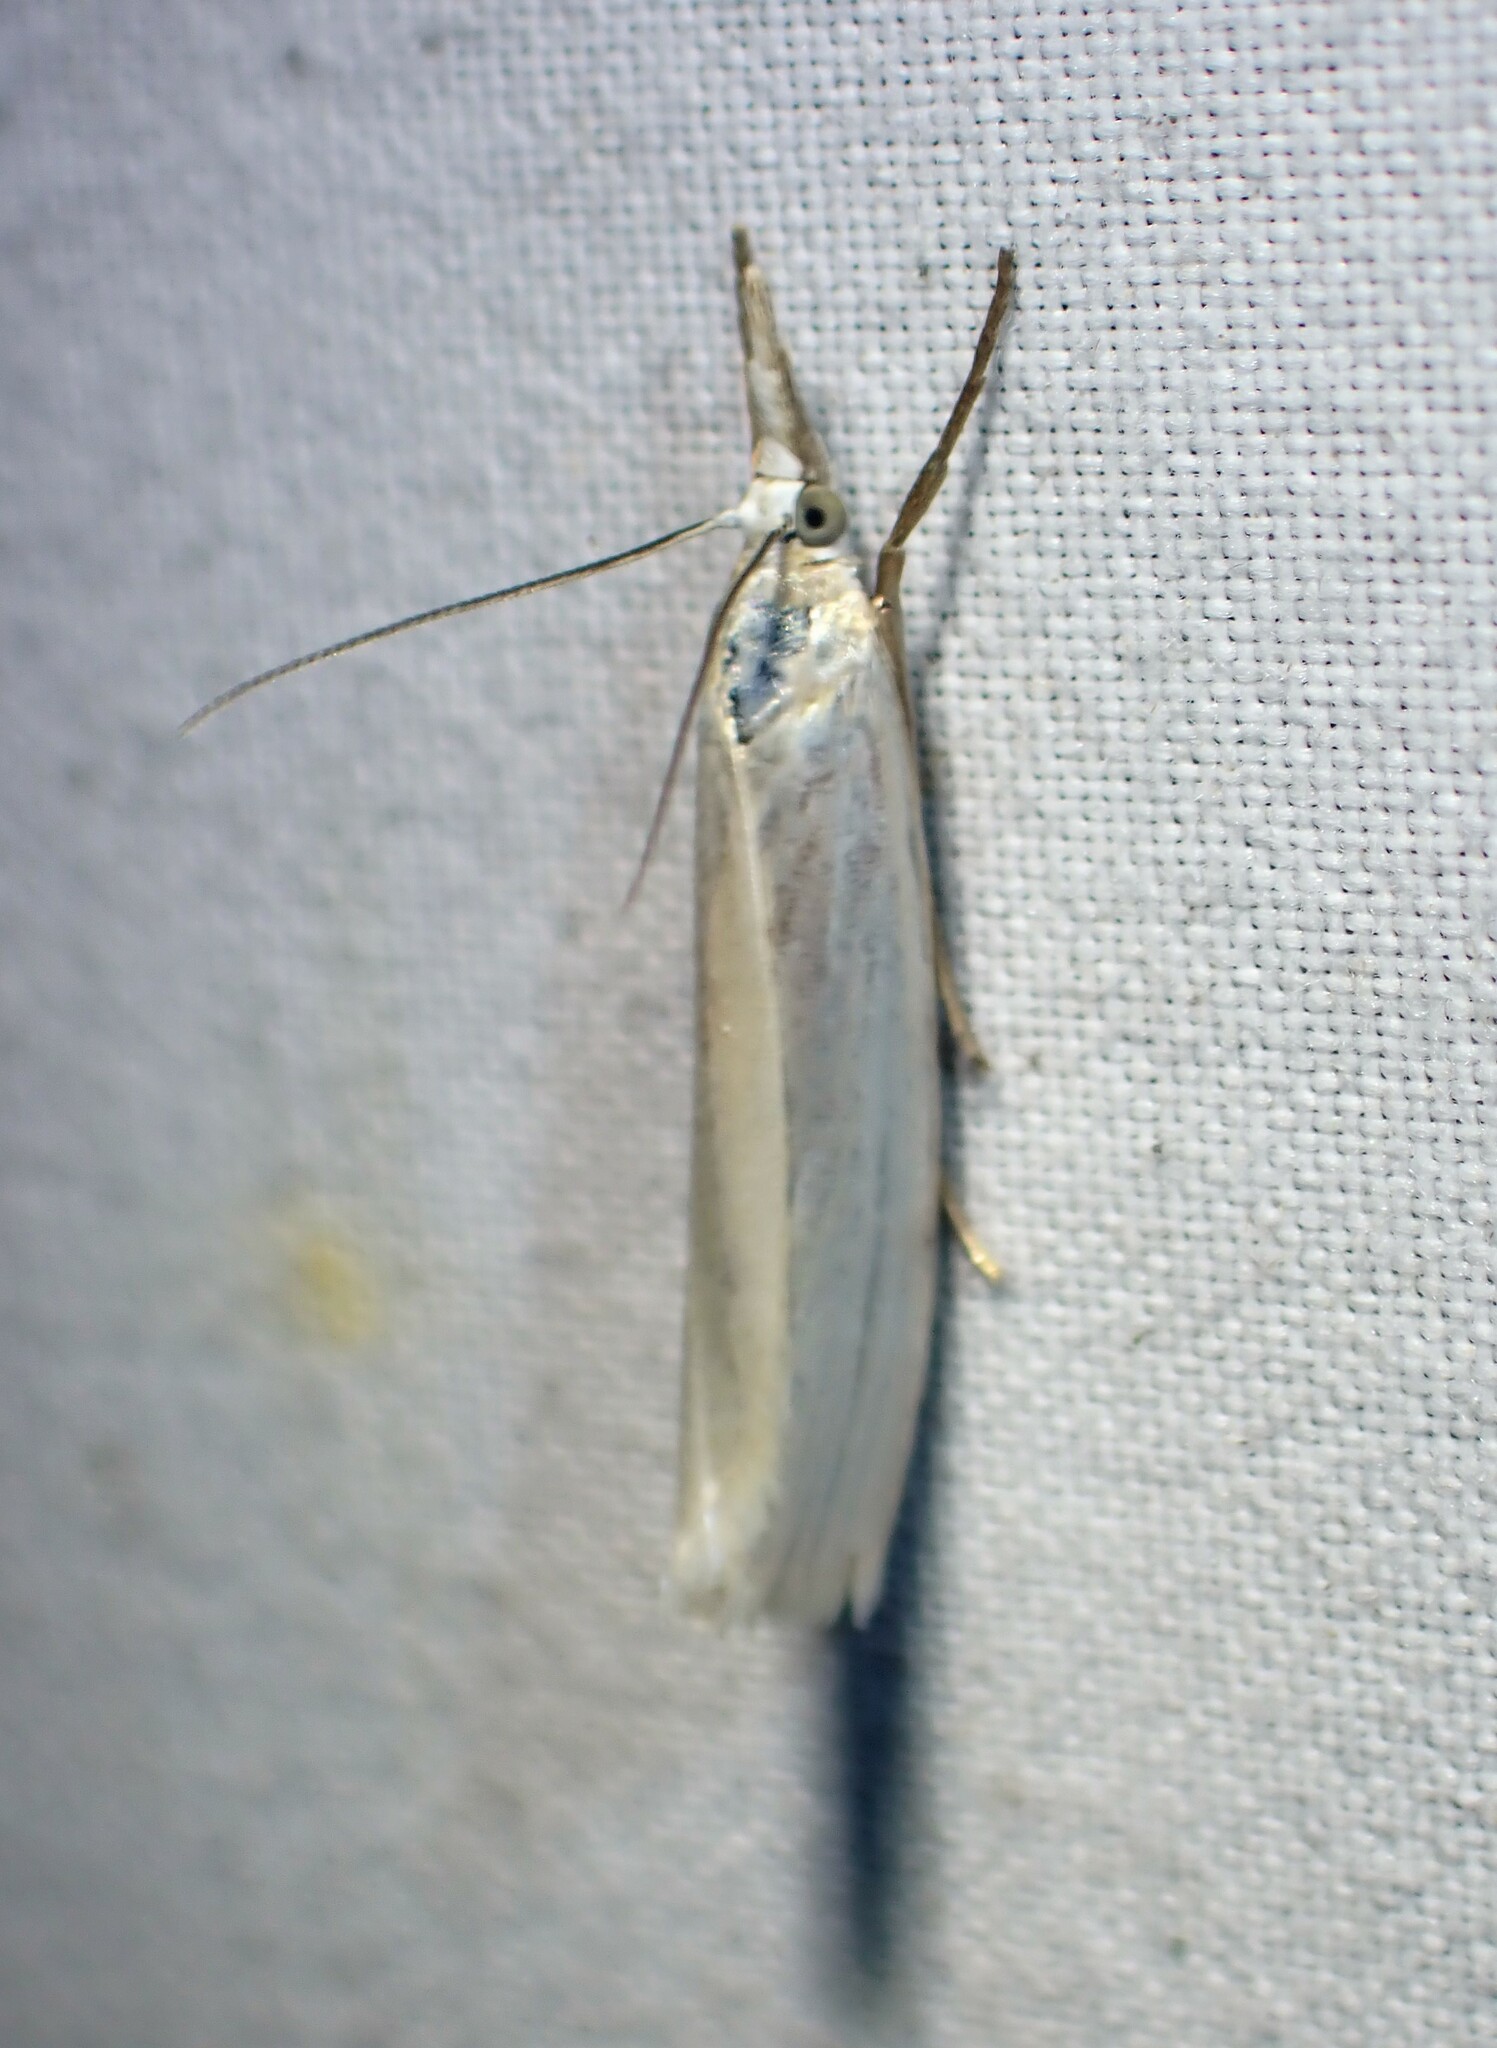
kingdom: Animalia
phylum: Arthropoda
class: Insecta
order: Lepidoptera
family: Crambidae
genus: Crambus
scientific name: Crambus perlellus
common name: Yellow satin veneer
